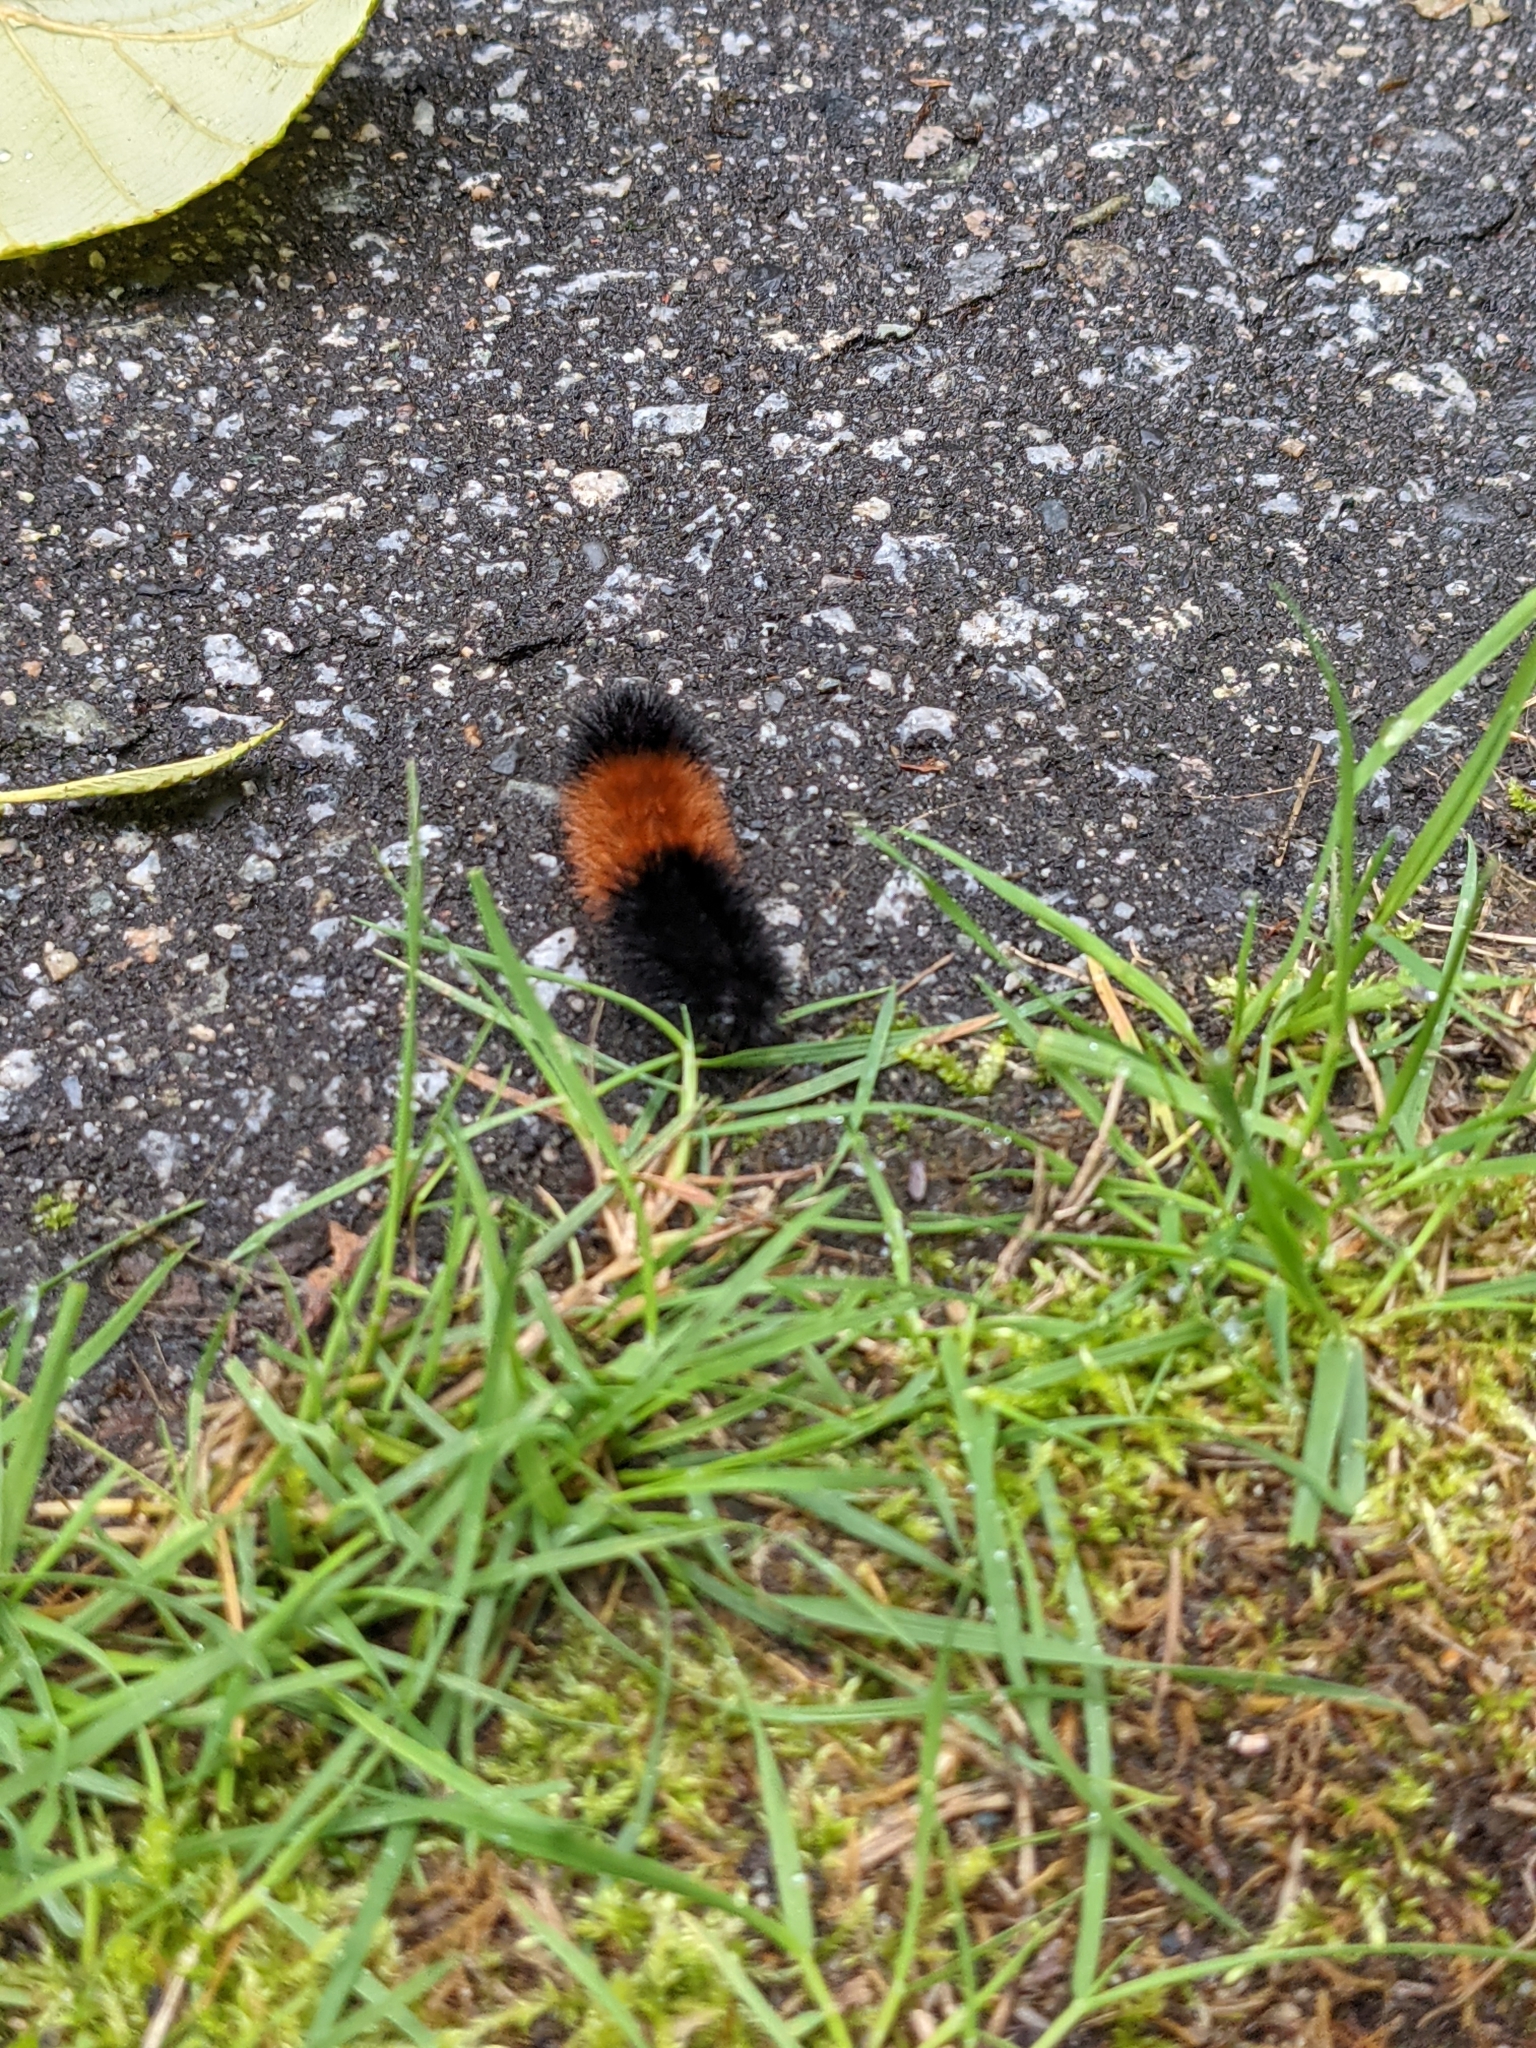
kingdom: Animalia
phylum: Arthropoda
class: Insecta
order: Lepidoptera
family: Erebidae
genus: Pyrrharctia
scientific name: Pyrrharctia isabella
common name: Isabella tiger moth
